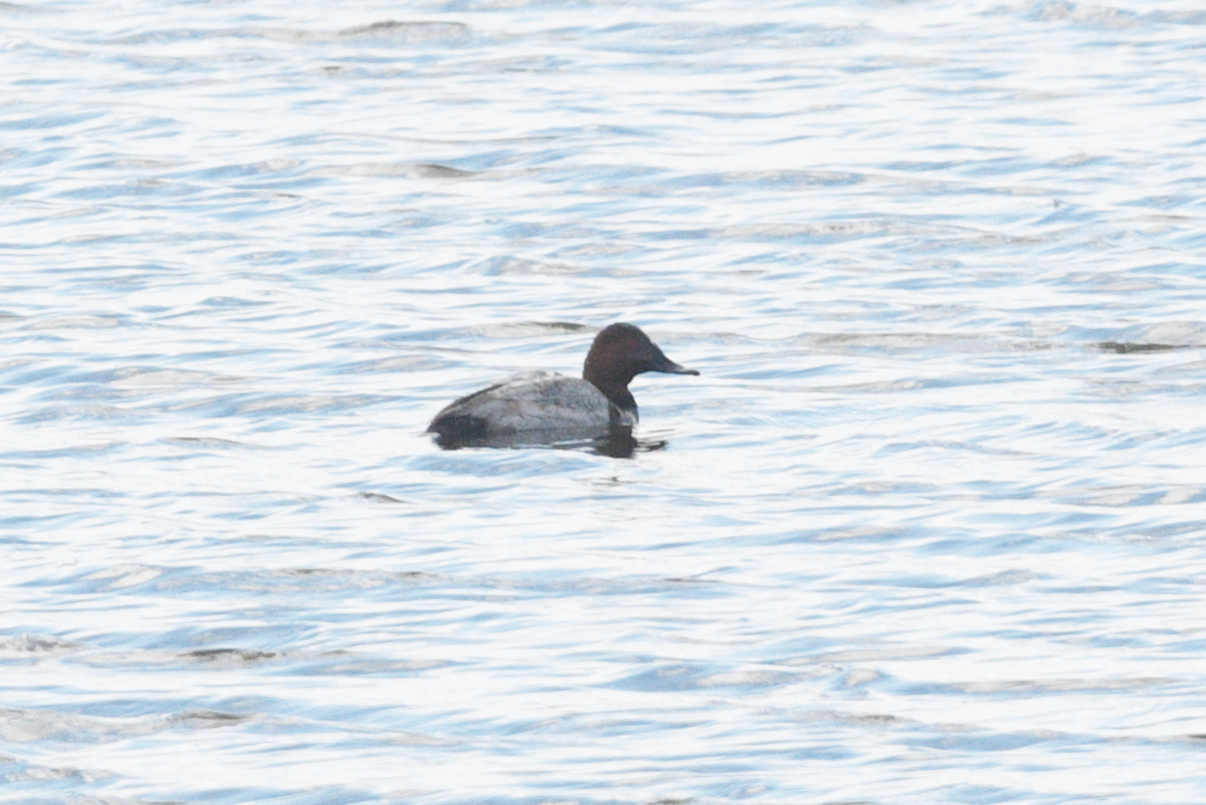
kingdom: Animalia
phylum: Chordata
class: Aves
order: Anseriformes
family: Anatidae
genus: Aythya
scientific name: Aythya ferina
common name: Common pochard
